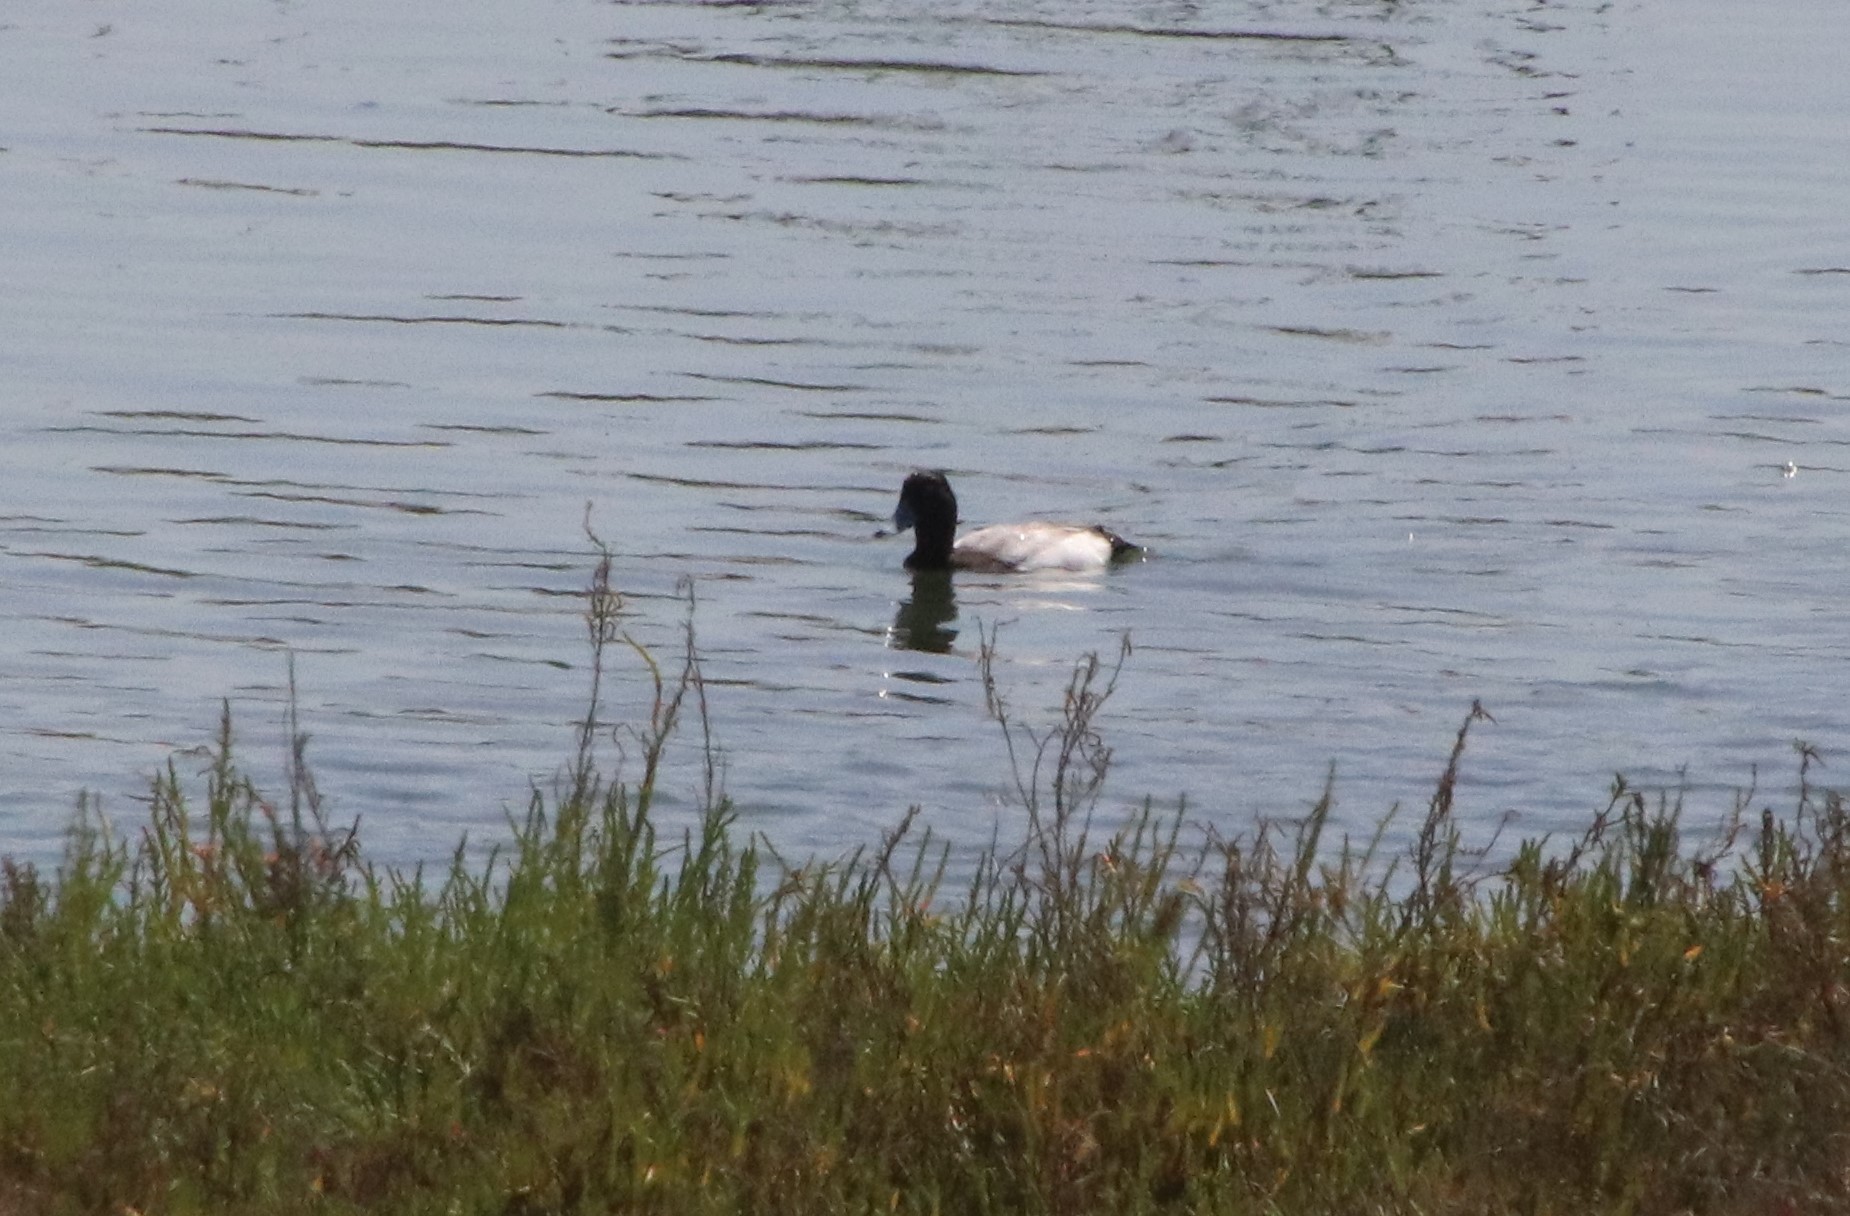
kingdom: Animalia
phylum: Chordata
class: Aves
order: Anseriformes
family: Anatidae
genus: Aythya
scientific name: Aythya affinis
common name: Lesser scaup
